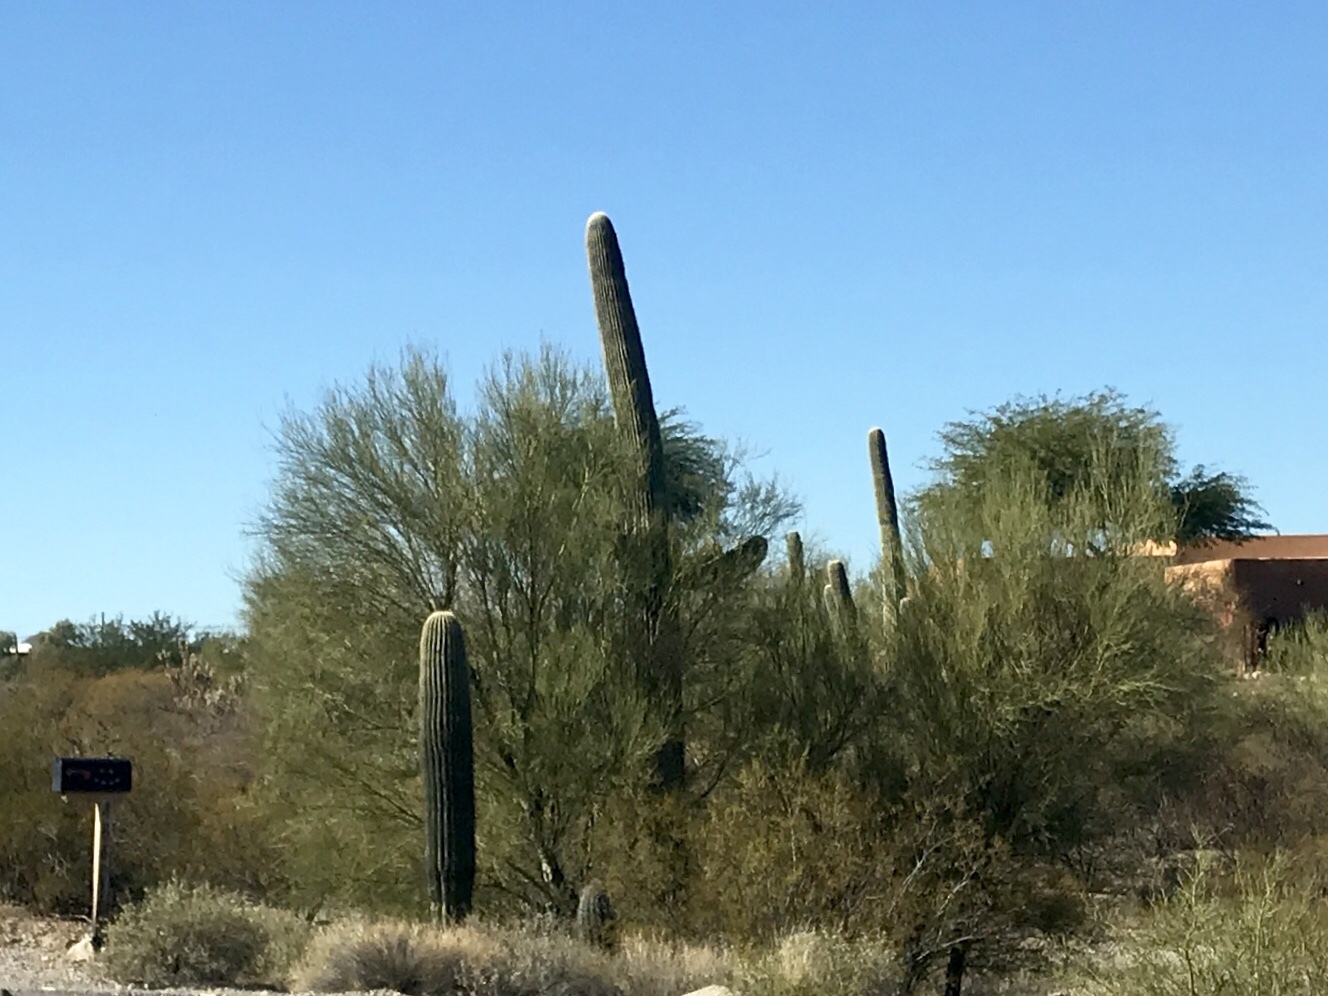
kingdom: Plantae
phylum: Tracheophyta
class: Magnoliopsida
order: Caryophyllales
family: Cactaceae
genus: Carnegiea
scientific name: Carnegiea gigantea
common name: Saguaro
